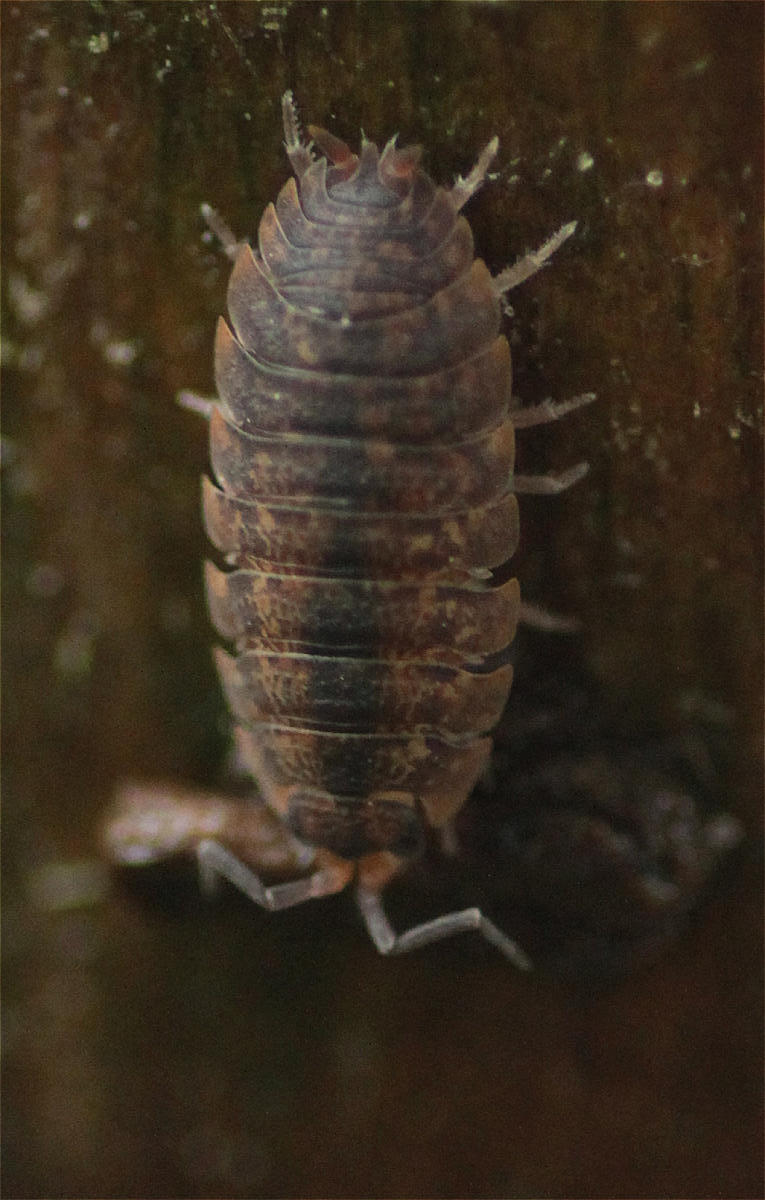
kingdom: Animalia
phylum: Arthropoda
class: Malacostraca
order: Isopoda
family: Porcellionidae
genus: Porcellio
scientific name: Porcellio scaber
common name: Common rough woodlouse
